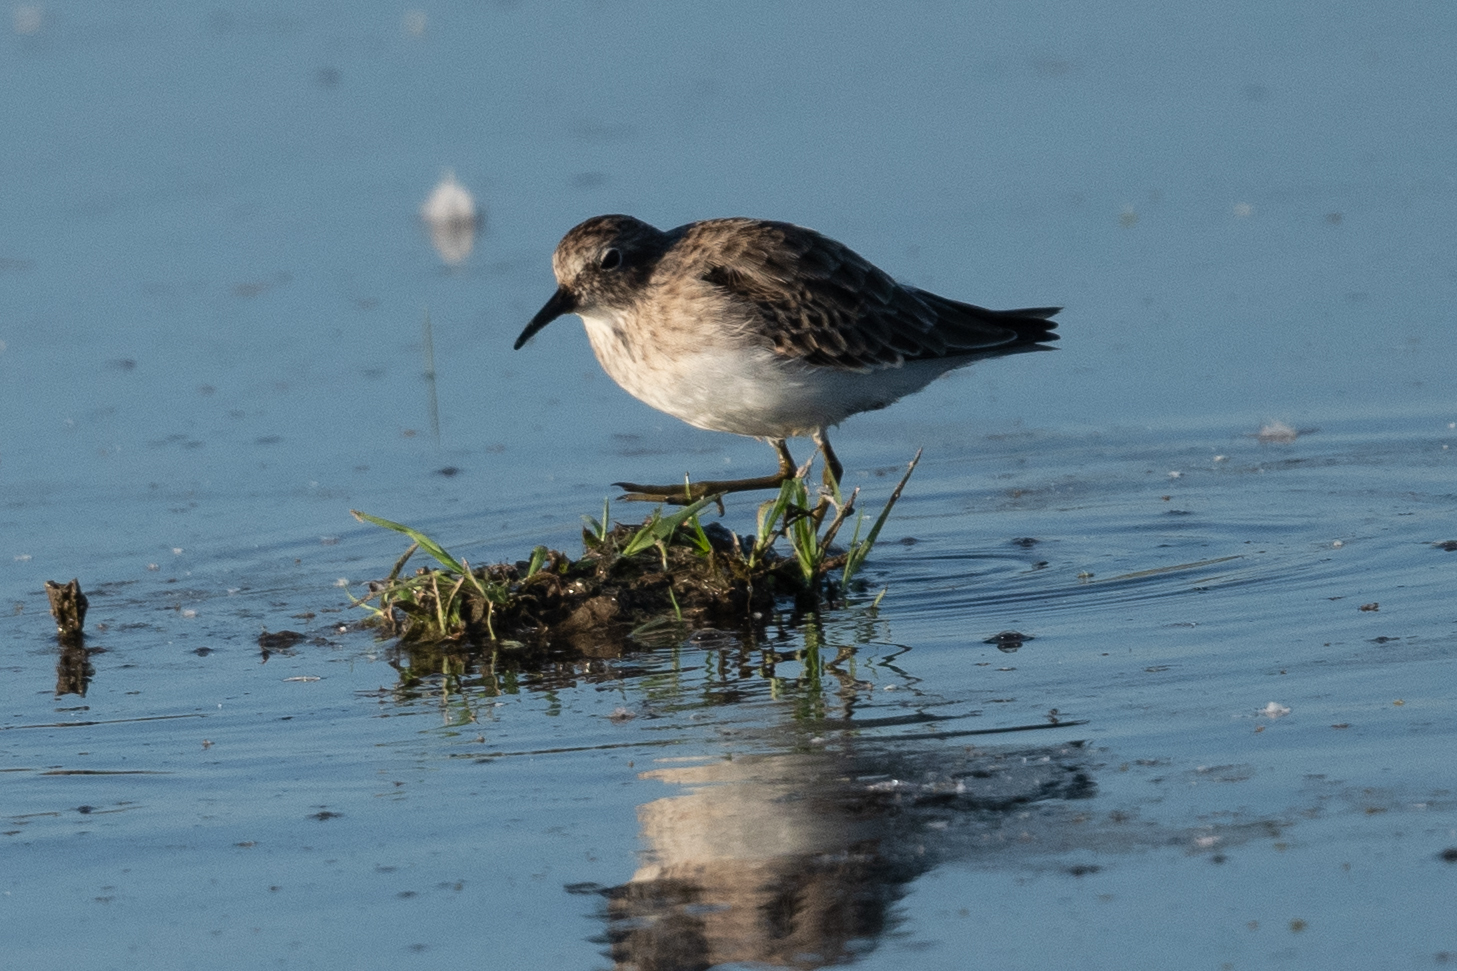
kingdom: Animalia
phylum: Chordata
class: Aves
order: Charadriiformes
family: Scolopacidae
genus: Calidris
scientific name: Calidris minutilla
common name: Least sandpiper
